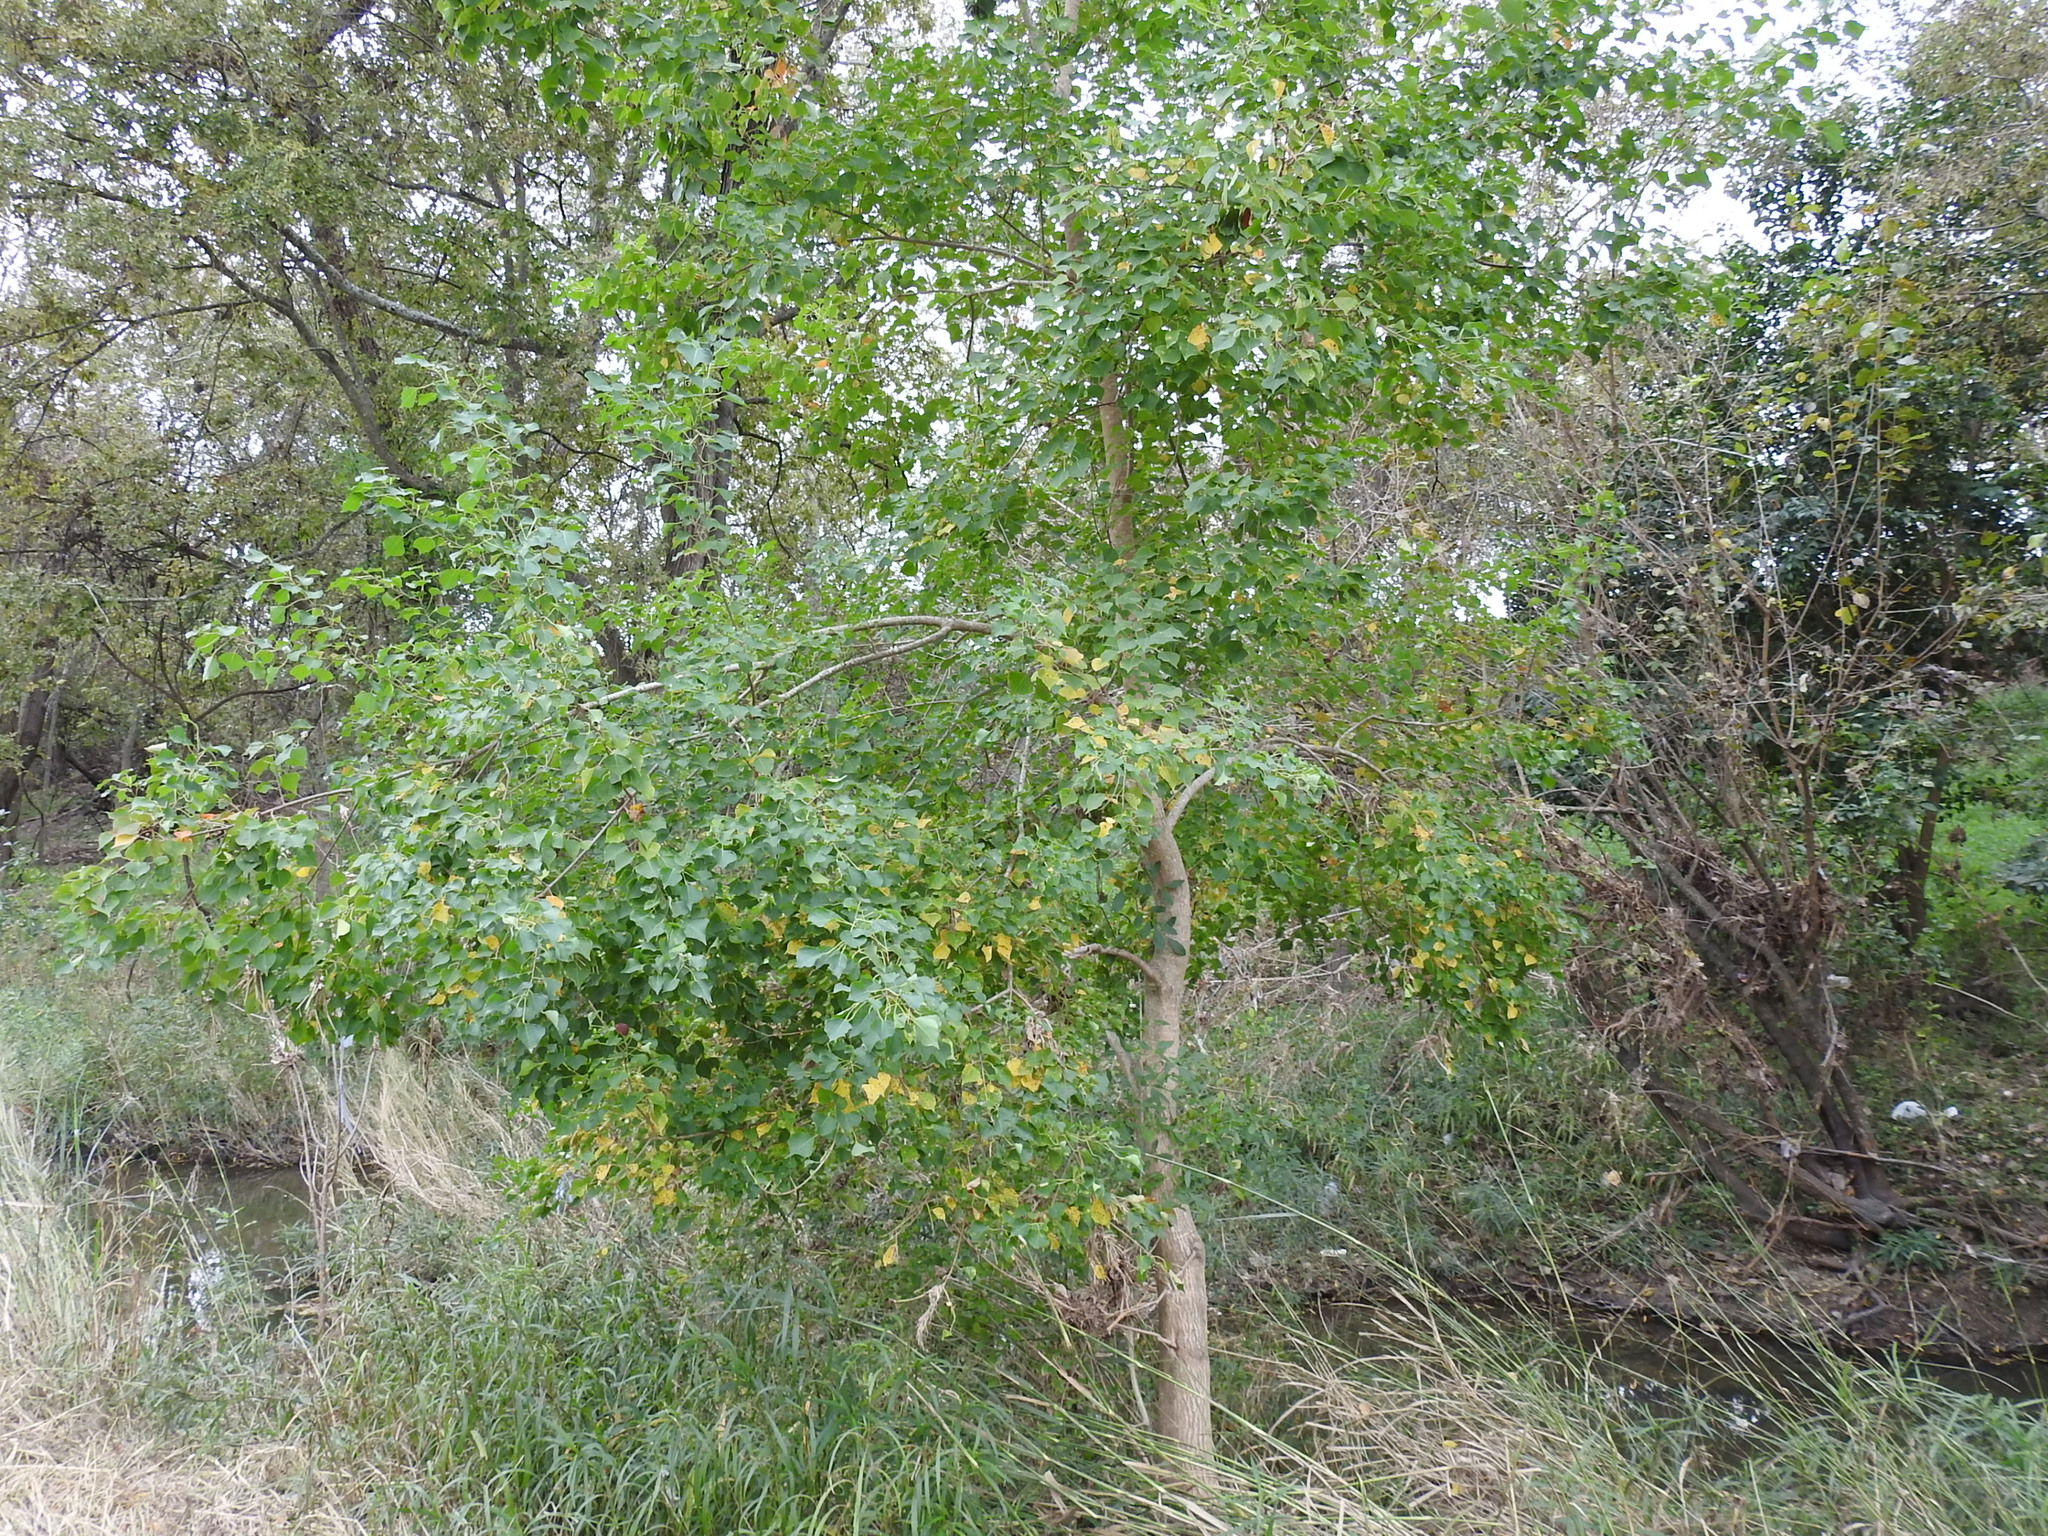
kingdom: Plantae
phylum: Tracheophyta
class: Magnoliopsida
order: Malpighiales
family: Euphorbiaceae
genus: Triadica
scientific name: Triadica sebifera
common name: Chinese tallow
